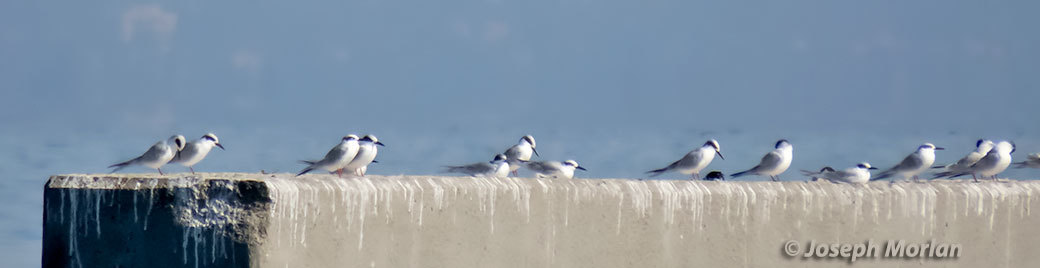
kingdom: Animalia
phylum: Chordata
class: Aves
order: Charadriiformes
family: Laridae
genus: Sterna
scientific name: Sterna forsteri
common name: Forster's tern
